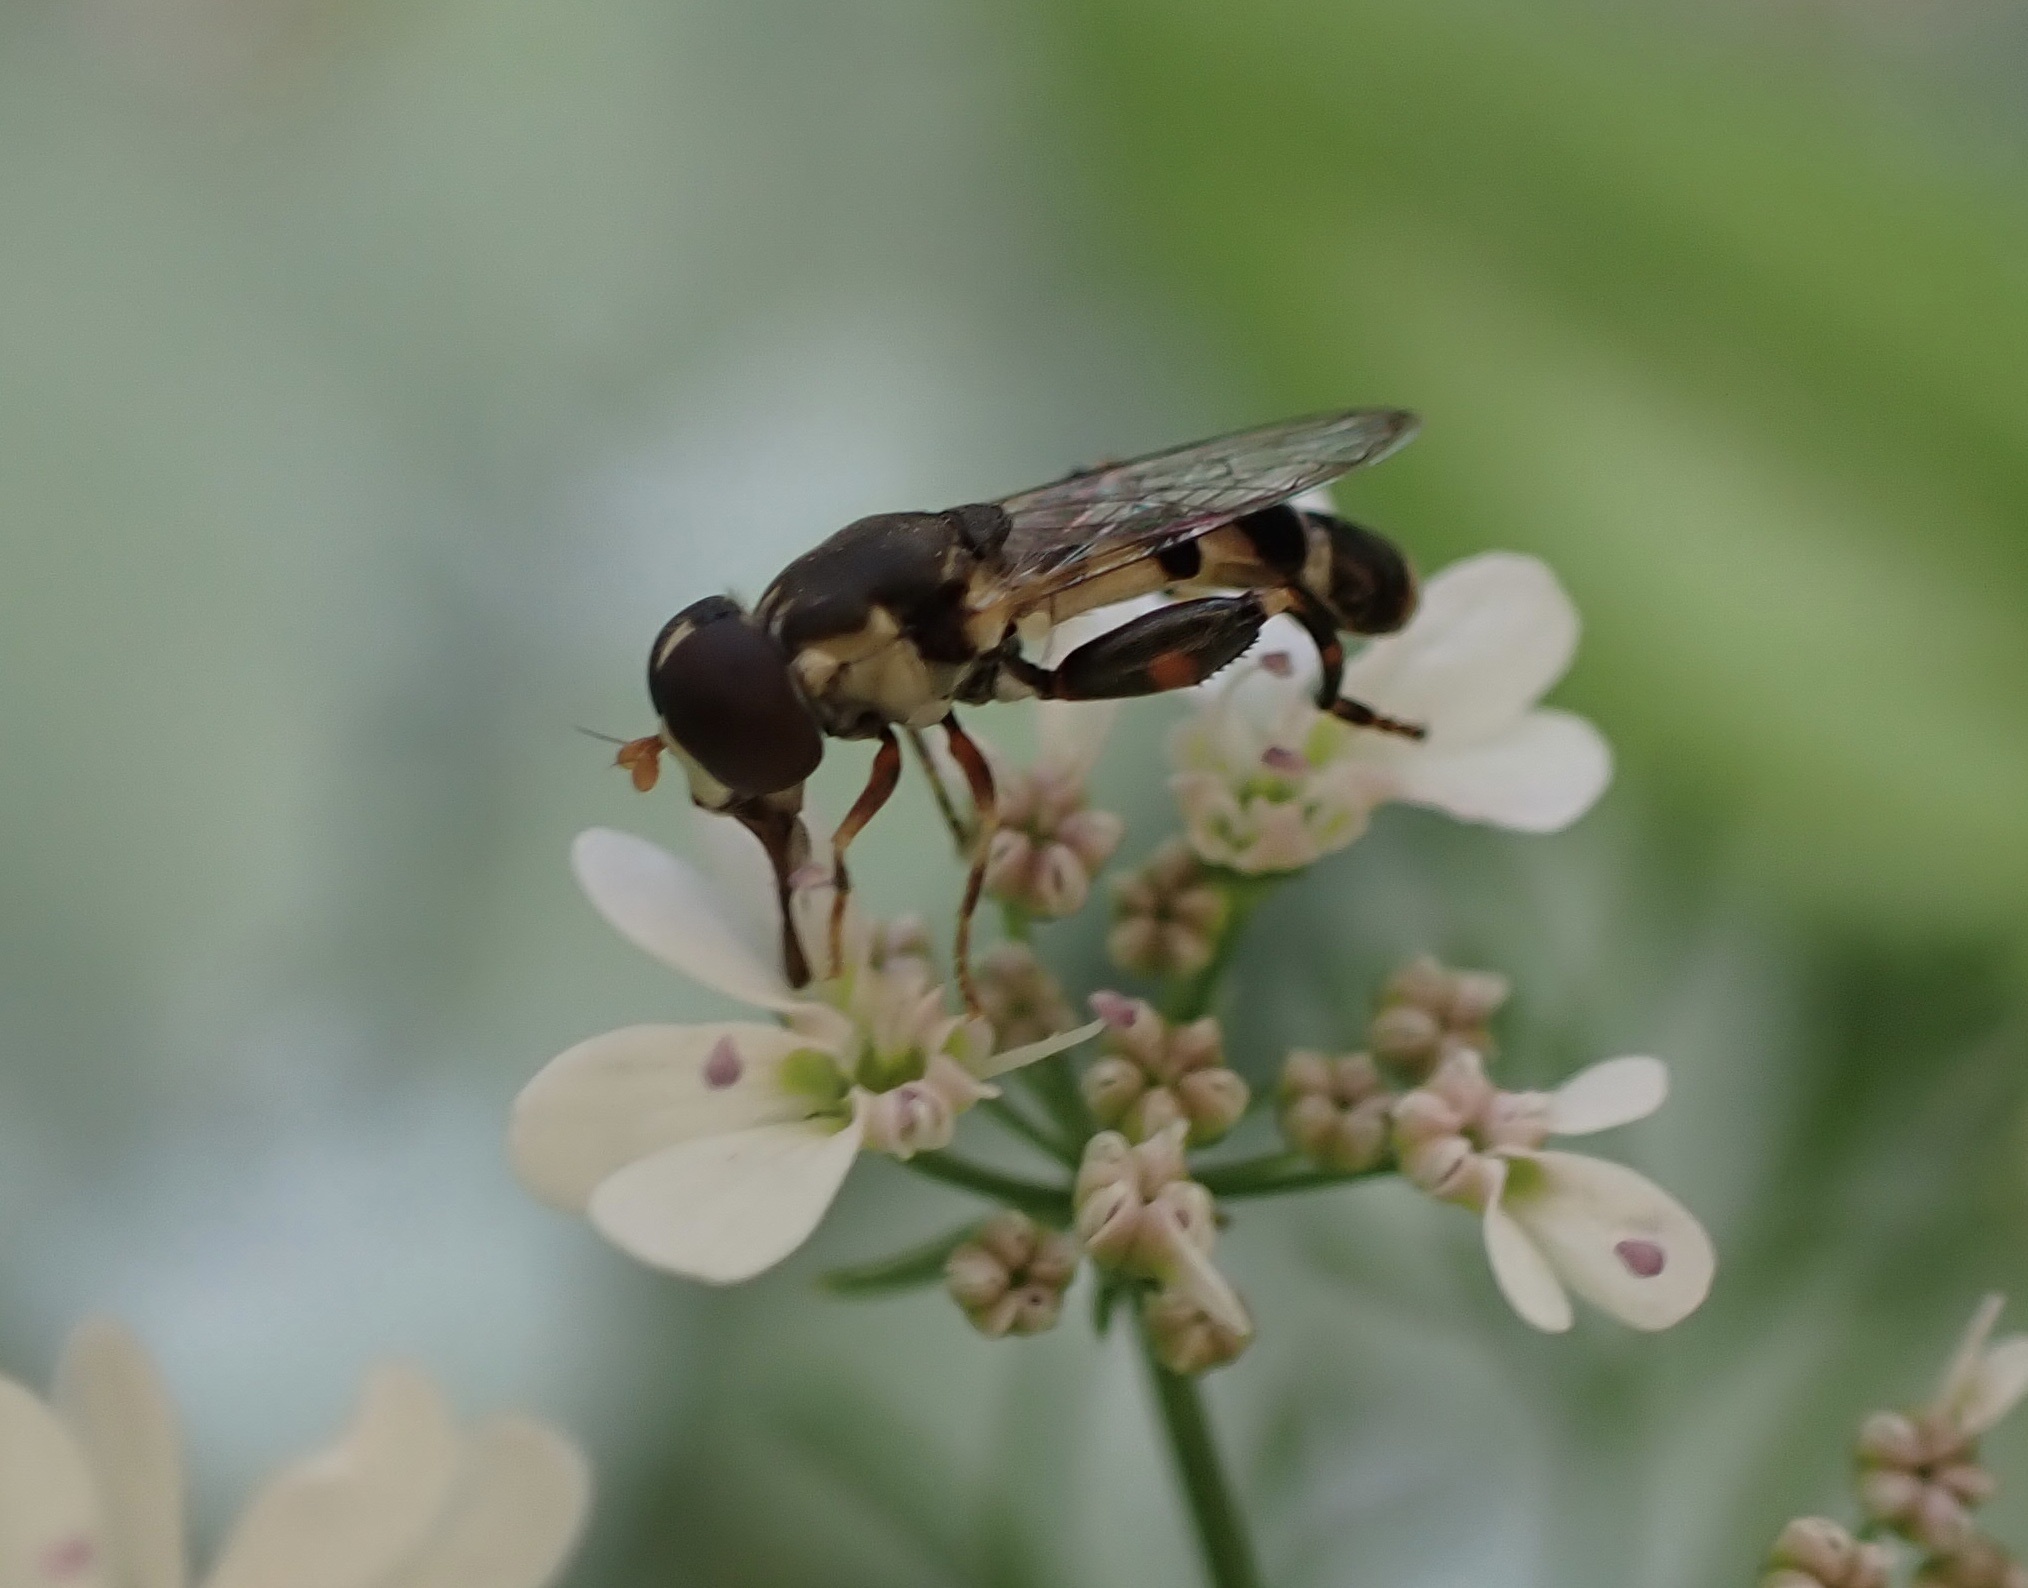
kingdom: Animalia
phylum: Arthropoda
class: Insecta
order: Diptera
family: Syrphidae
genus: Syritta
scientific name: Syritta pipiens
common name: Hover fly
